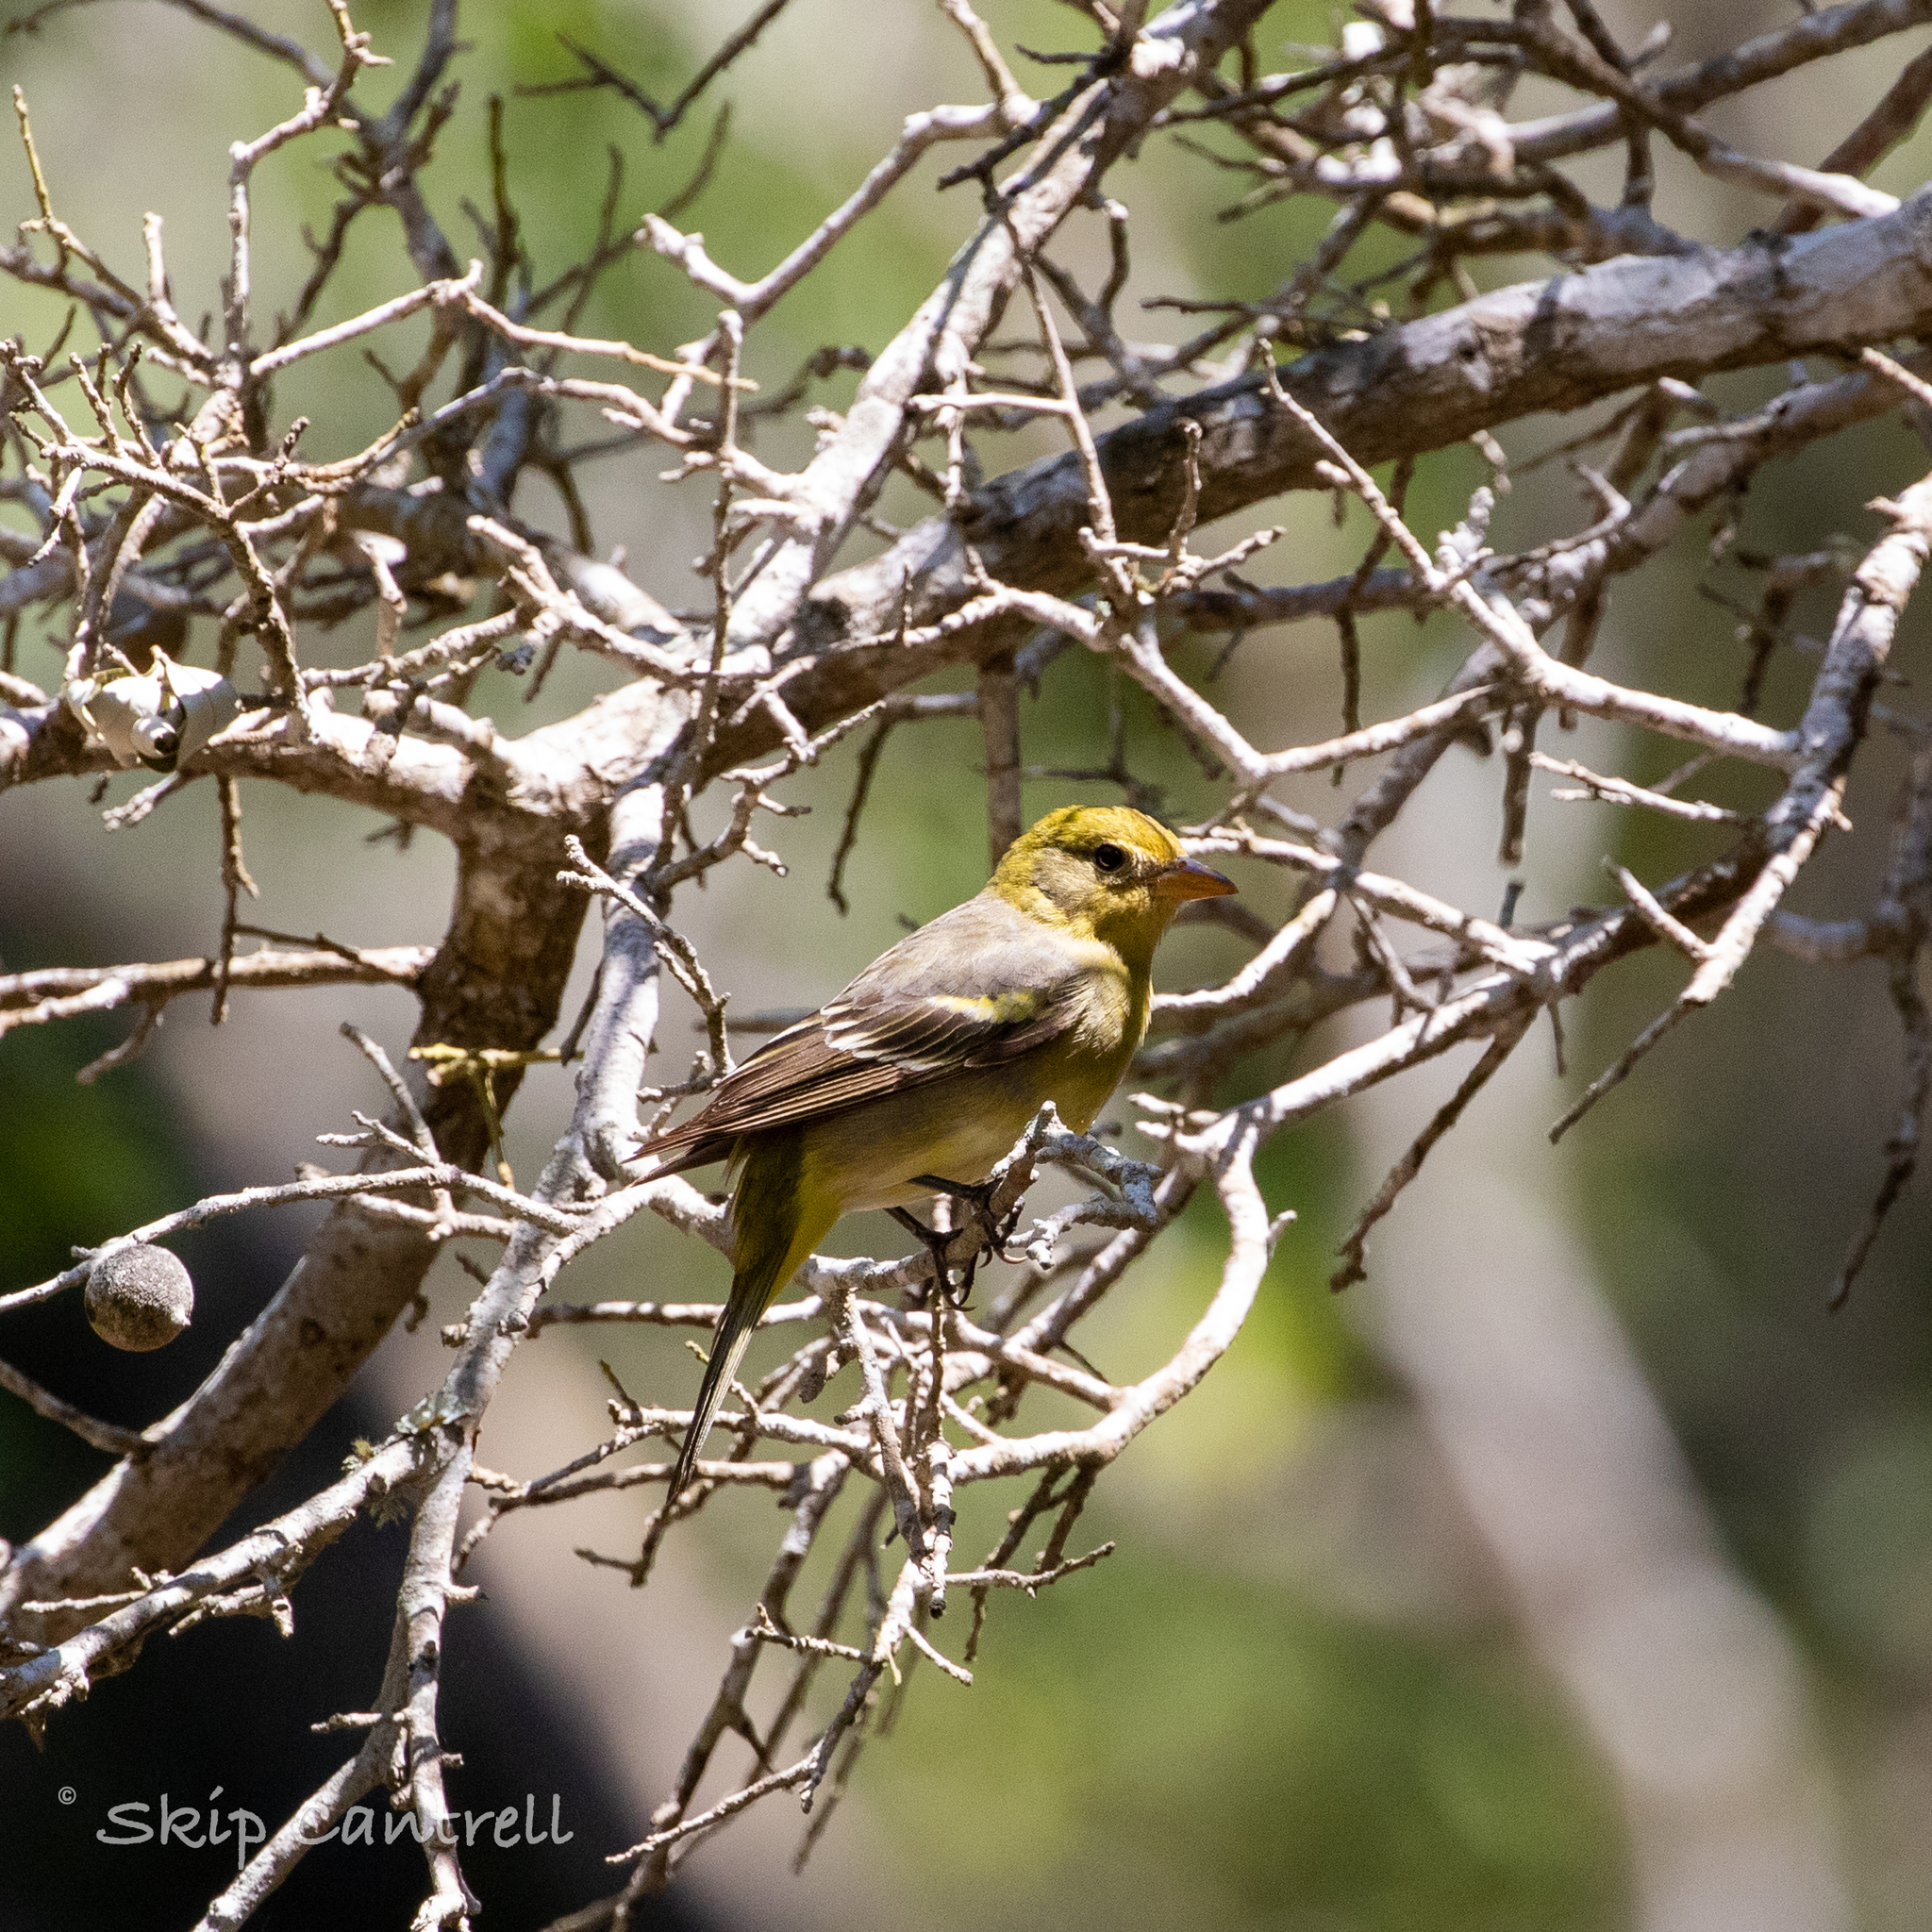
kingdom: Animalia
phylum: Chordata
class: Aves
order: Passeriformes
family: Cardinalidae
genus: Piranga
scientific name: Piranga ludoviciana
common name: Western tanager
